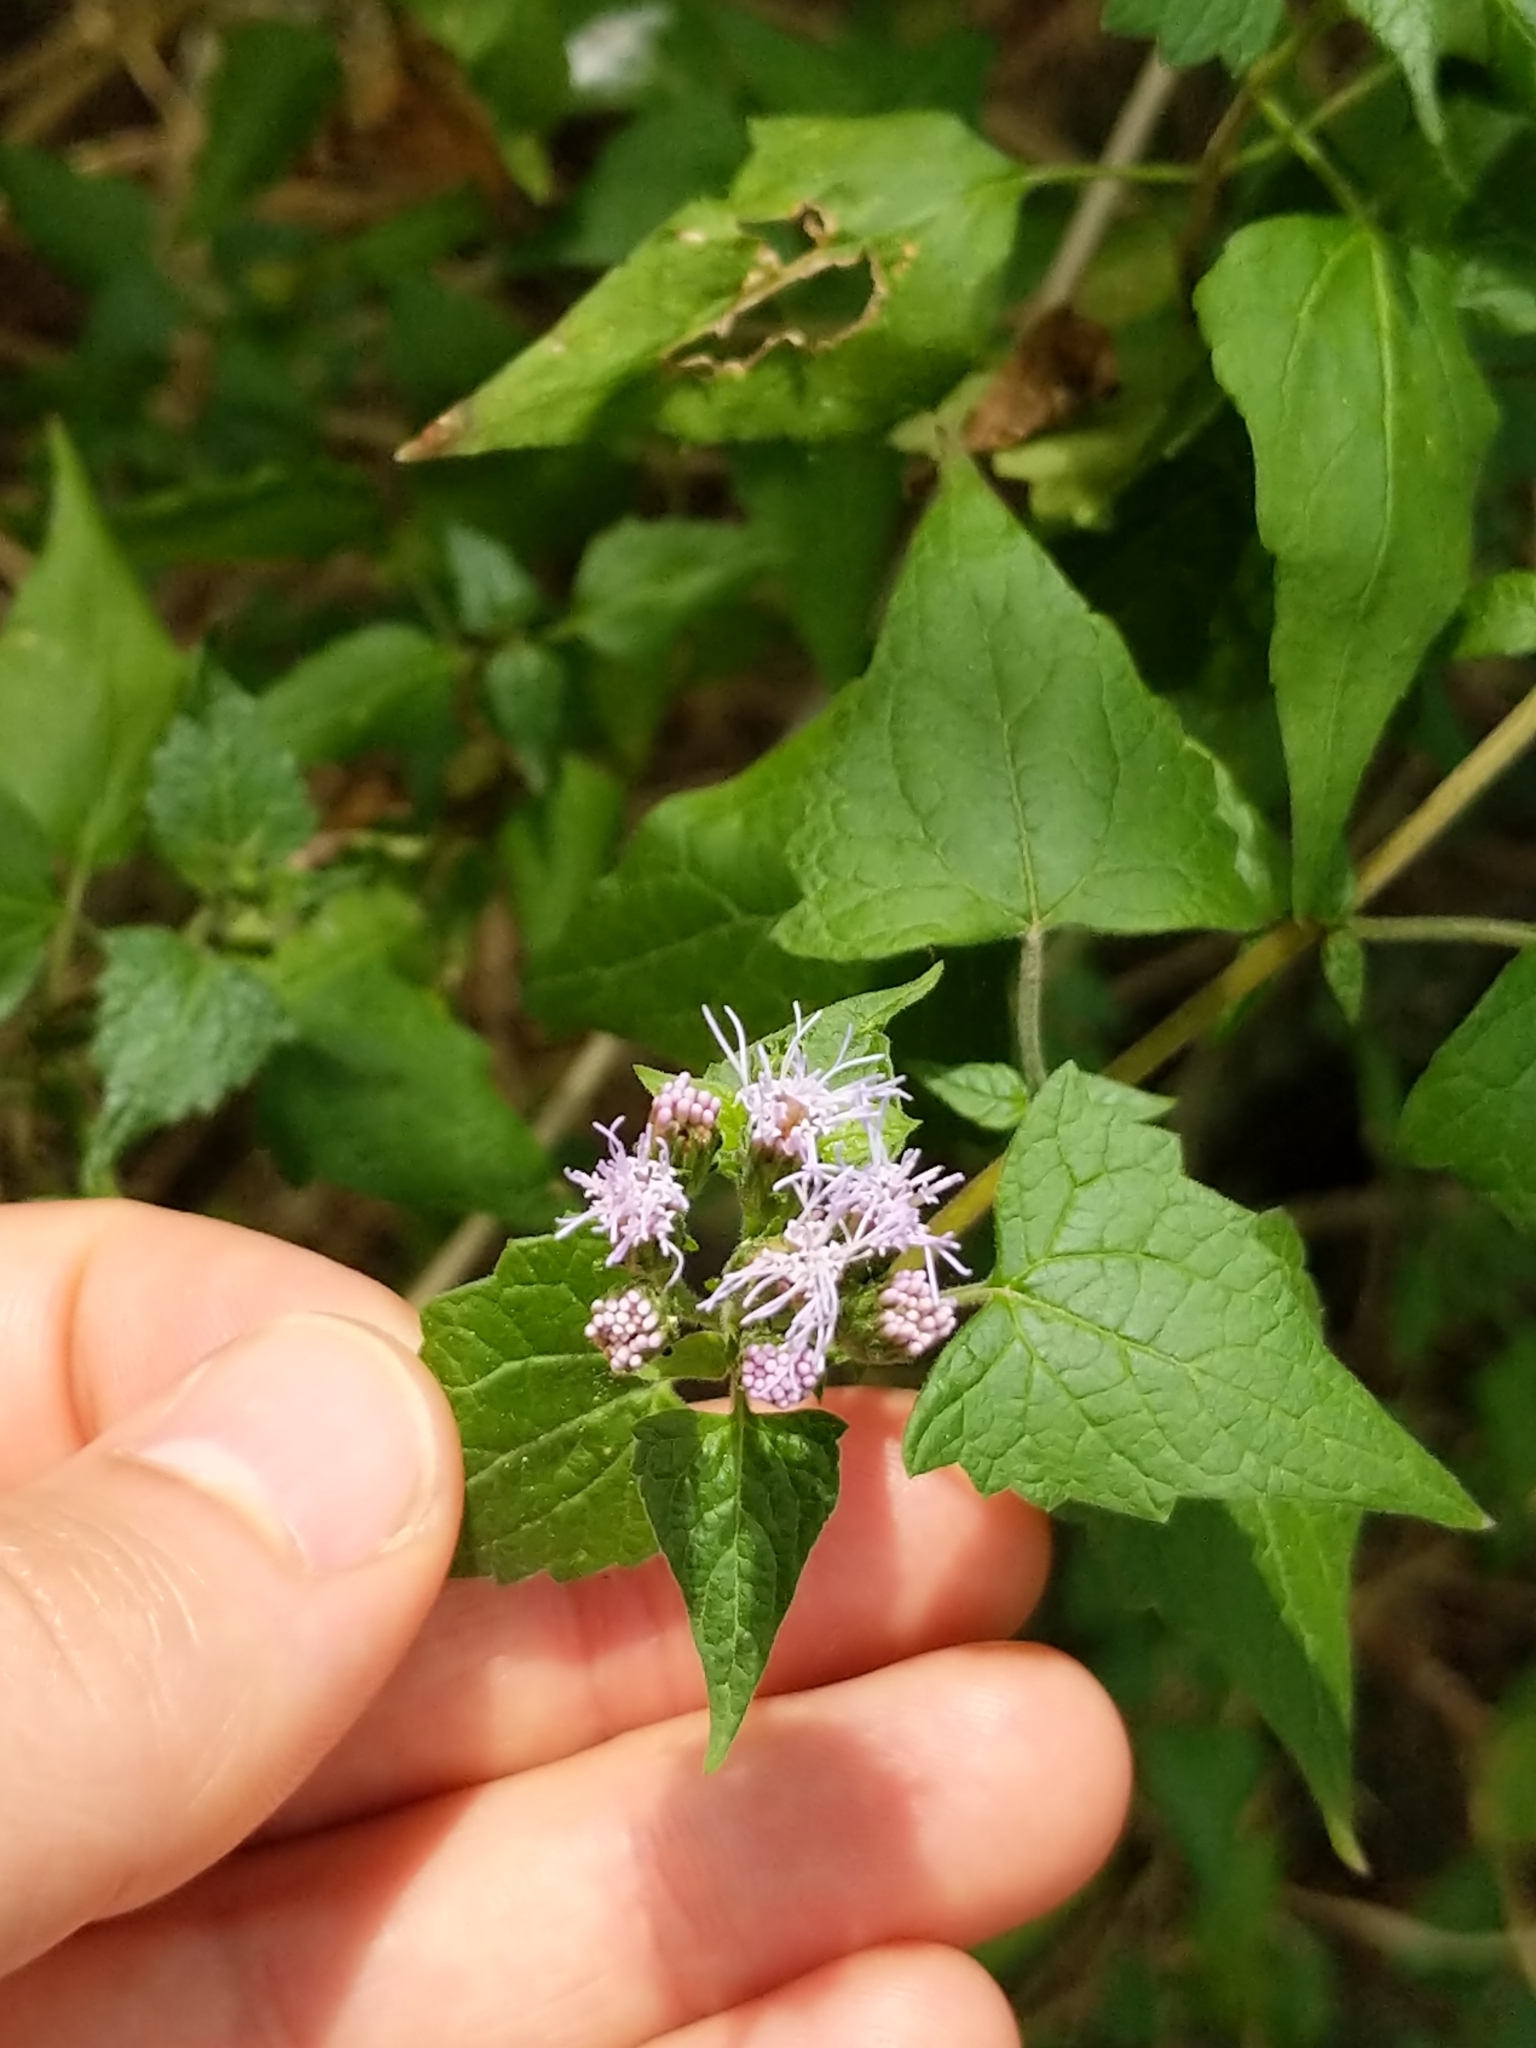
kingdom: Plantae
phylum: Tracheophyta
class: Magnoliopsida
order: Asterales
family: Asteraceae
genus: Tamaulipa
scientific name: Tamaulipa azurea
